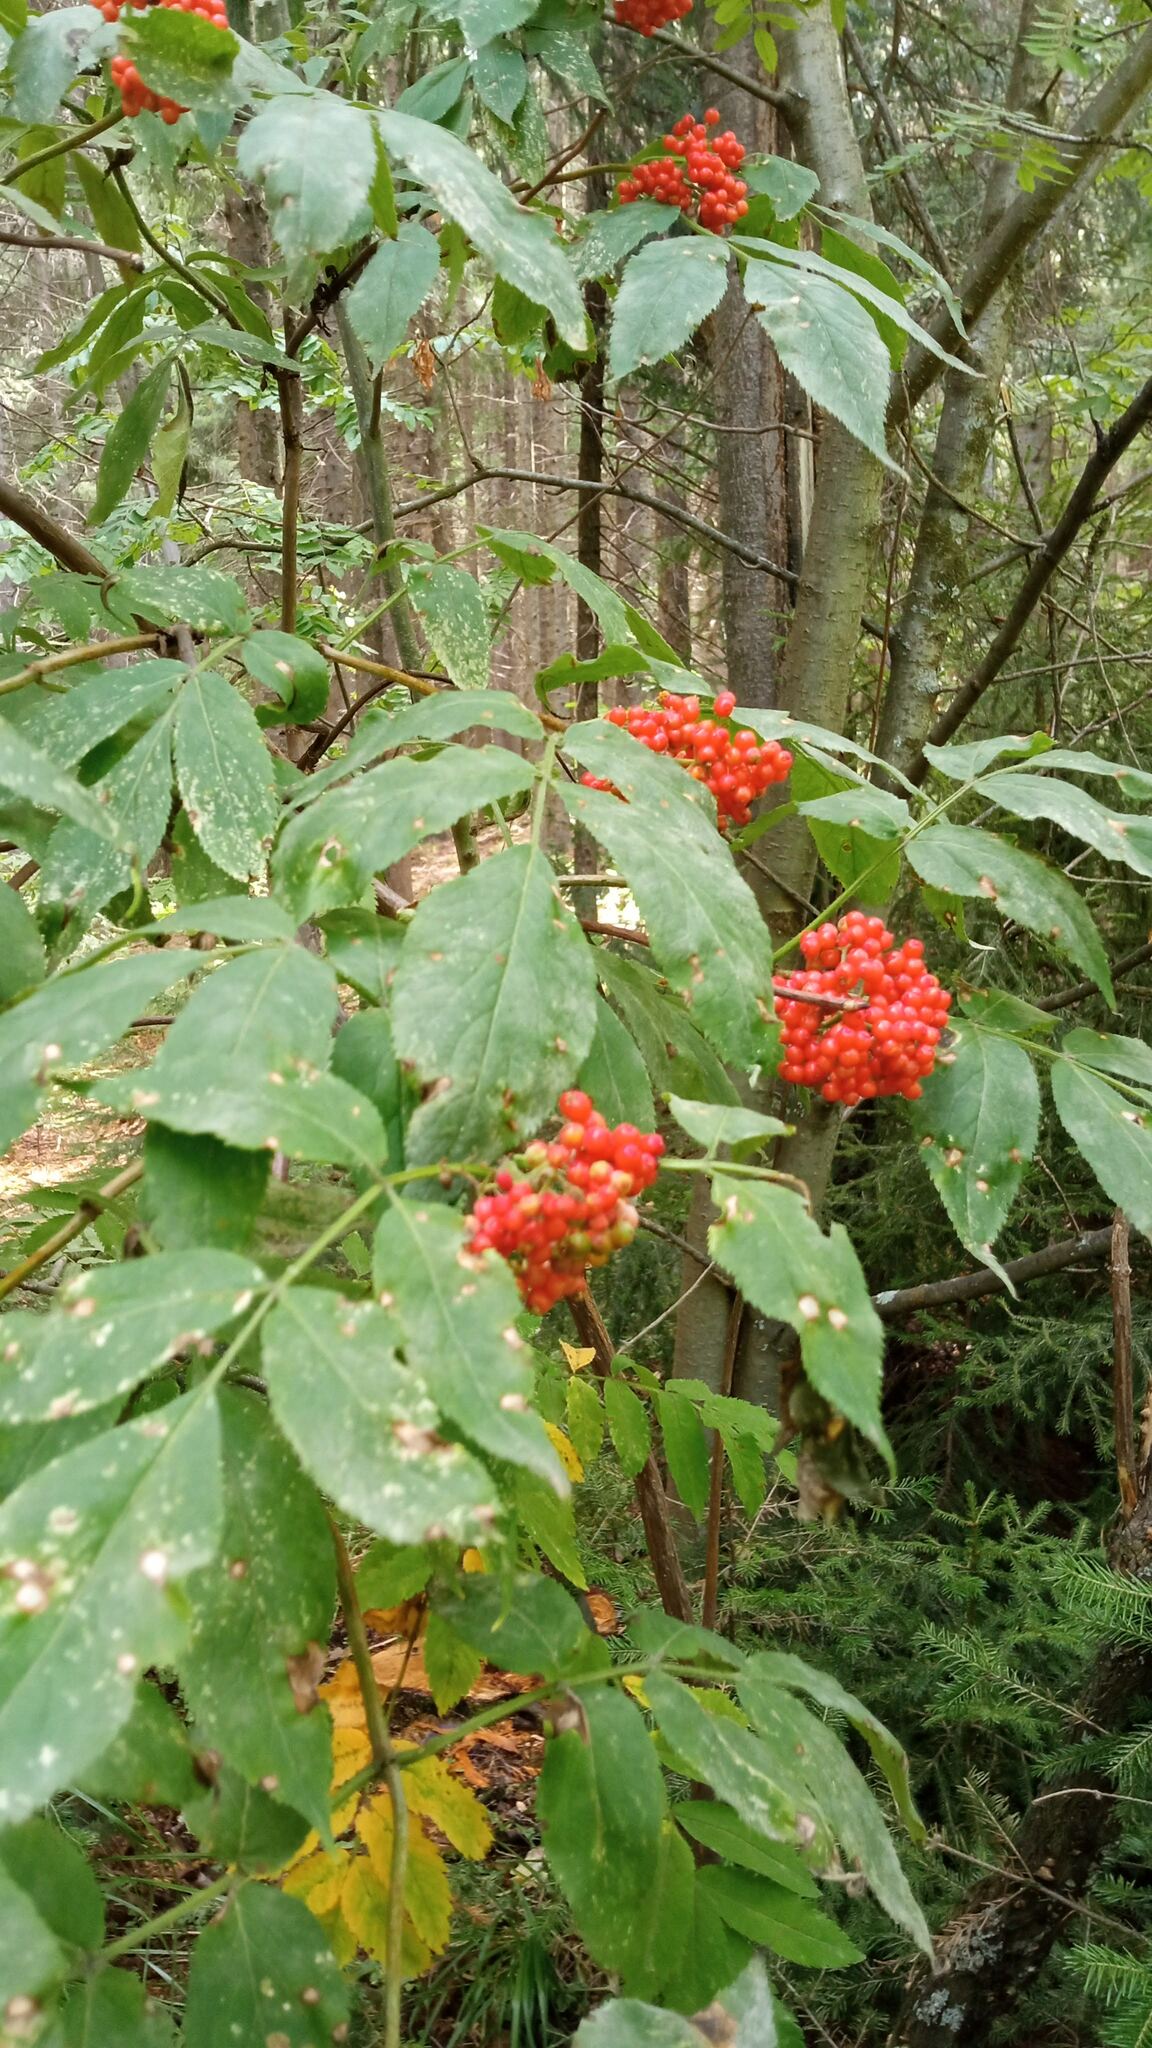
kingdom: Plantae
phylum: Tracheophyta
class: Magnoliopsida
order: Dipsacales
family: Viburnaceae
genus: Sambucus
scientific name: Sambucus sibirica
